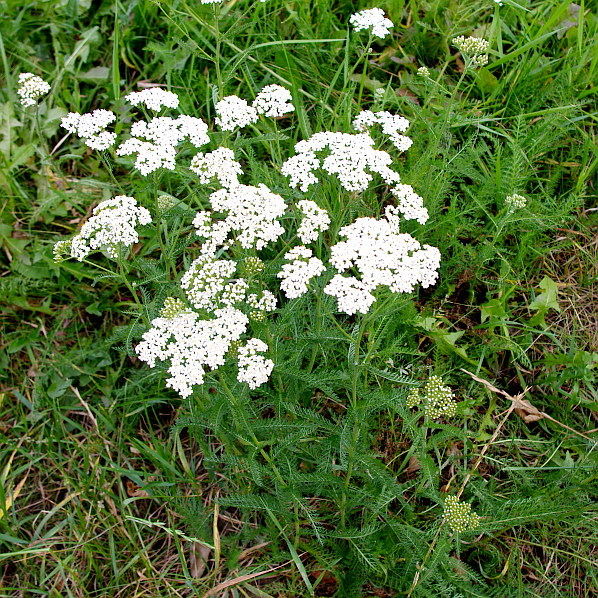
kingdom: Plantae
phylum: Tracheophyta
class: Magnoliopsida
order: Asterales
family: Asteraceae
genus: Achillea
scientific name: Achillea millefolium
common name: Yarrow
